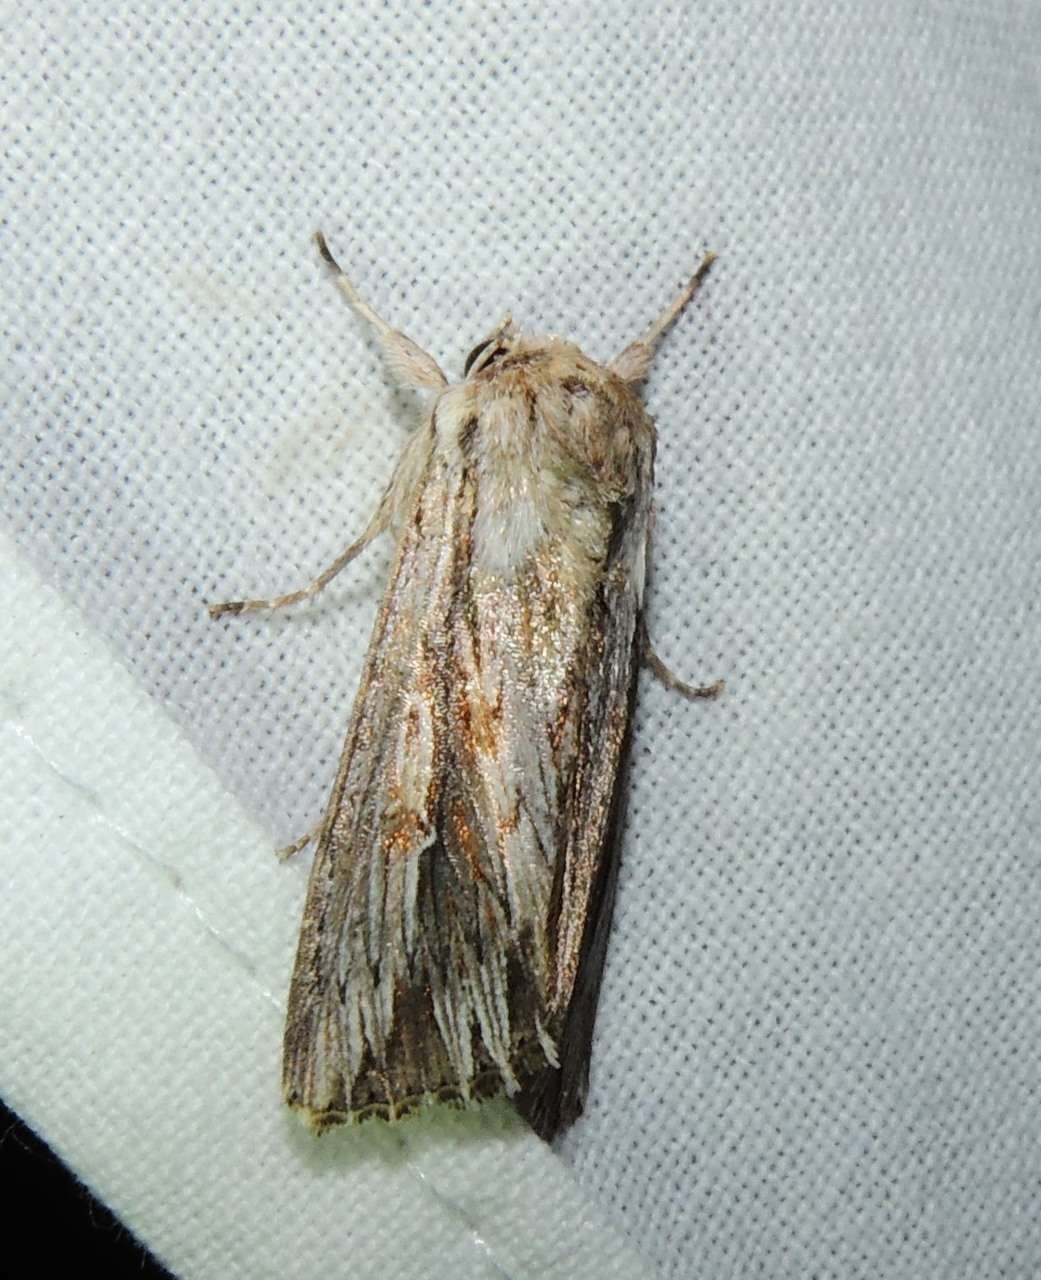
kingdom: Animalia
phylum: Arthropoda
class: Insecta
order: Lepidoptera
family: Noctuidae
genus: Persectania
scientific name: Persectania ewingii
